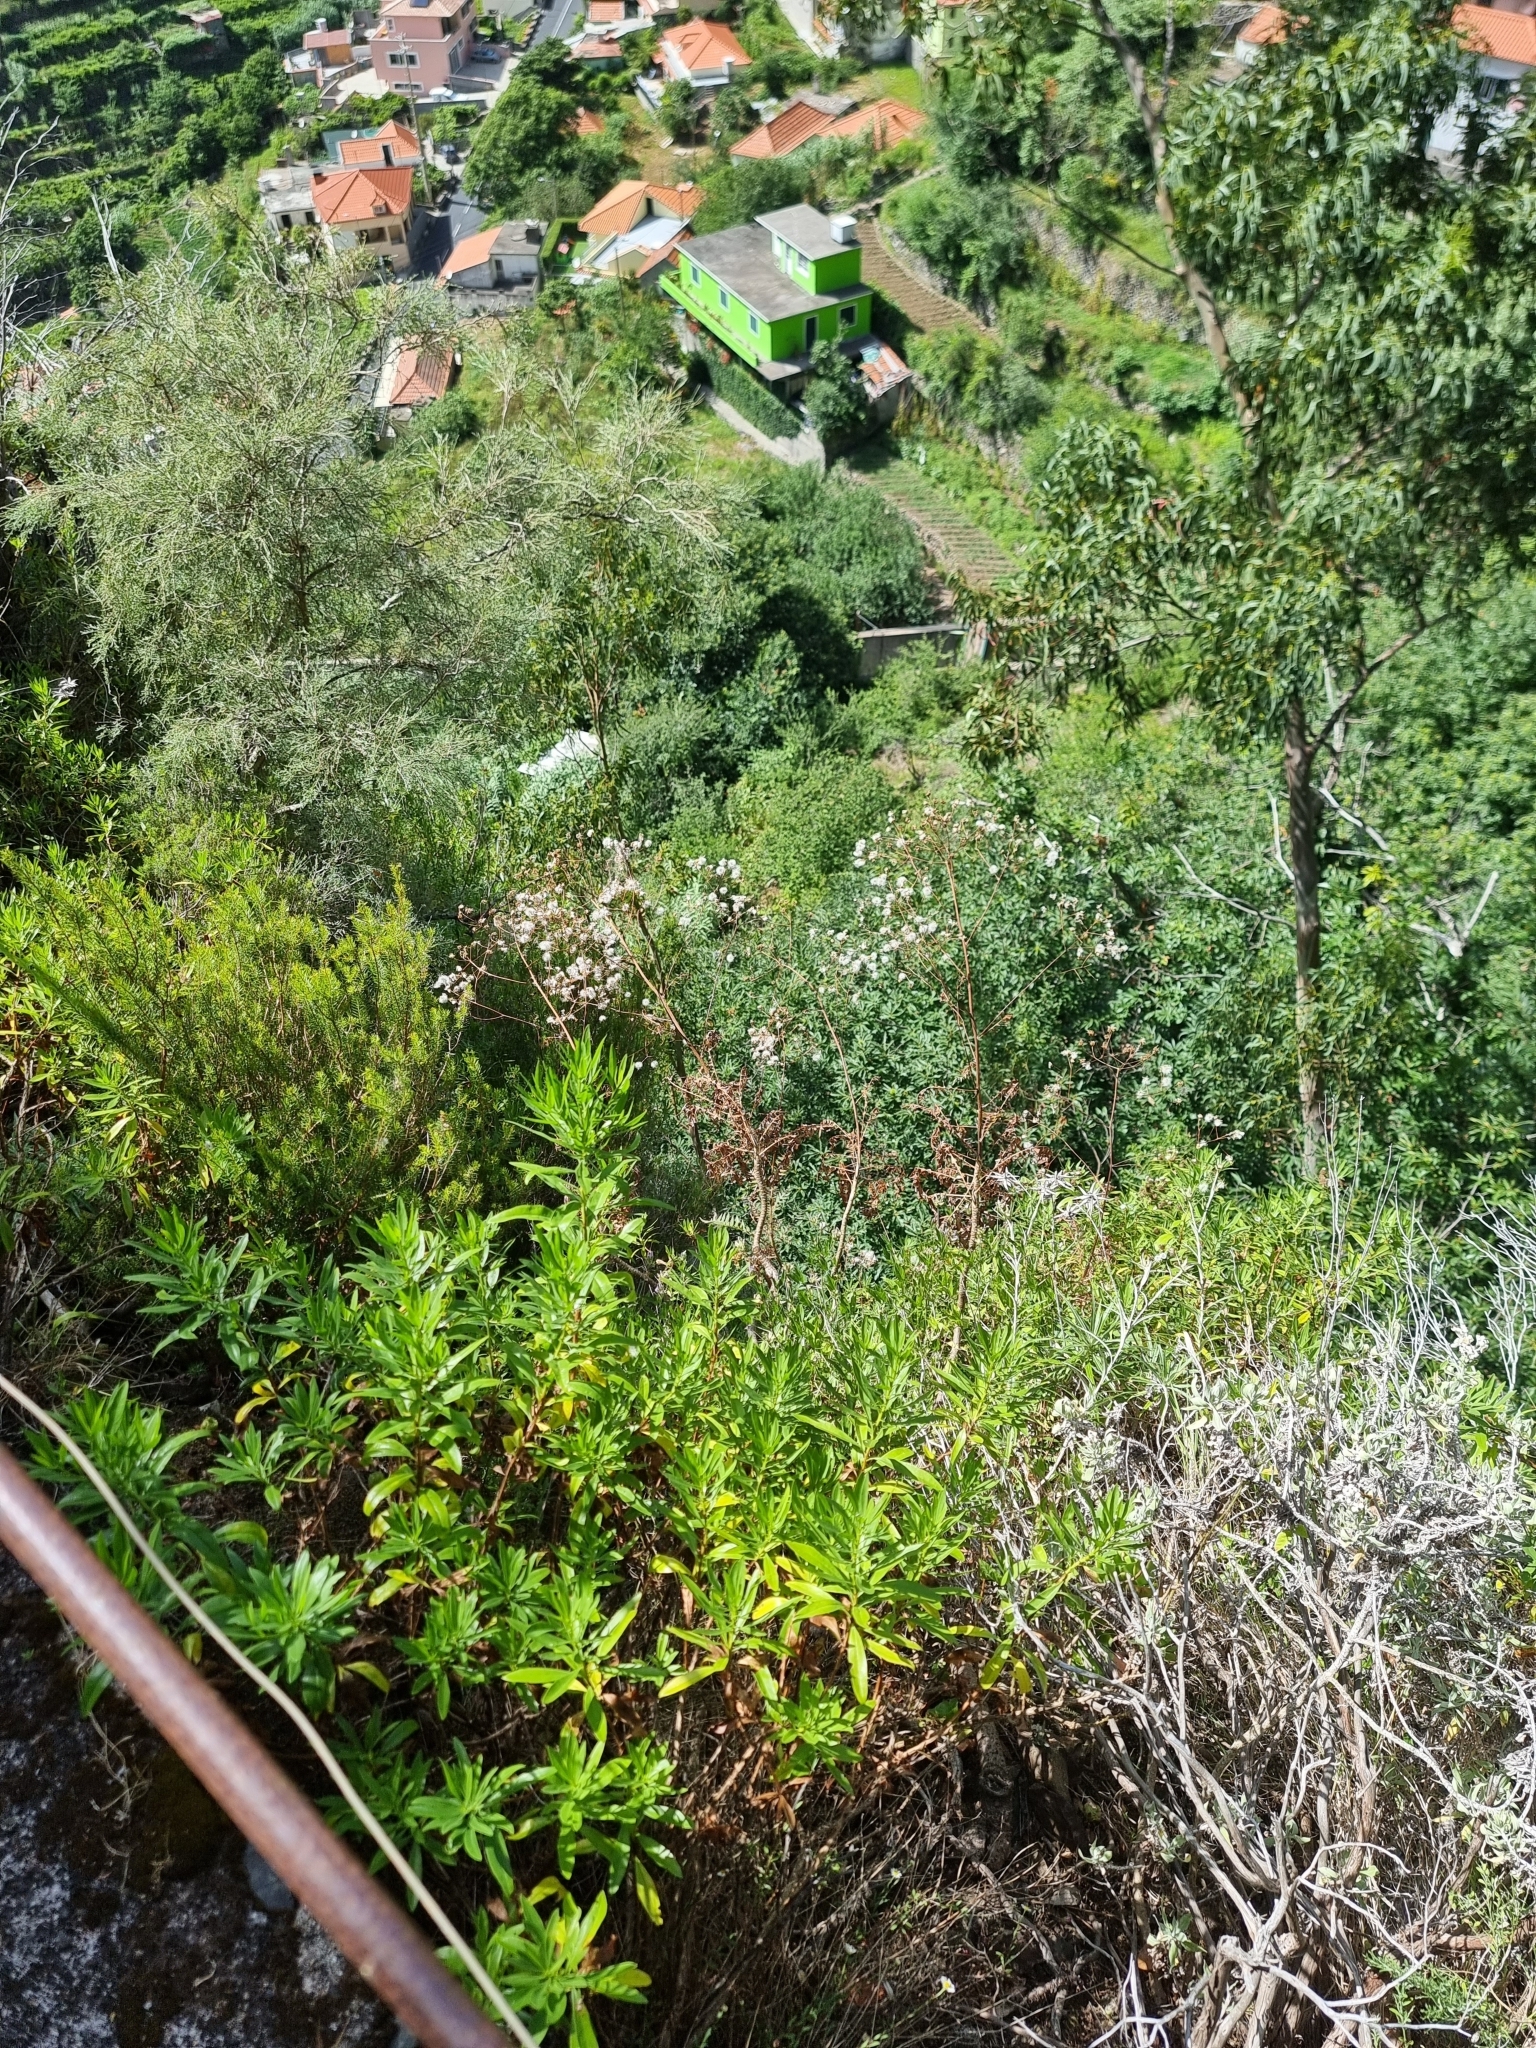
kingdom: Plantae
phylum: Tracheophyta
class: Magnoliopsida
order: Asterales
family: Asteraceae
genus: Sonchus
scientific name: Sonchus pinnatus
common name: Wing-leaved sow-thistle
